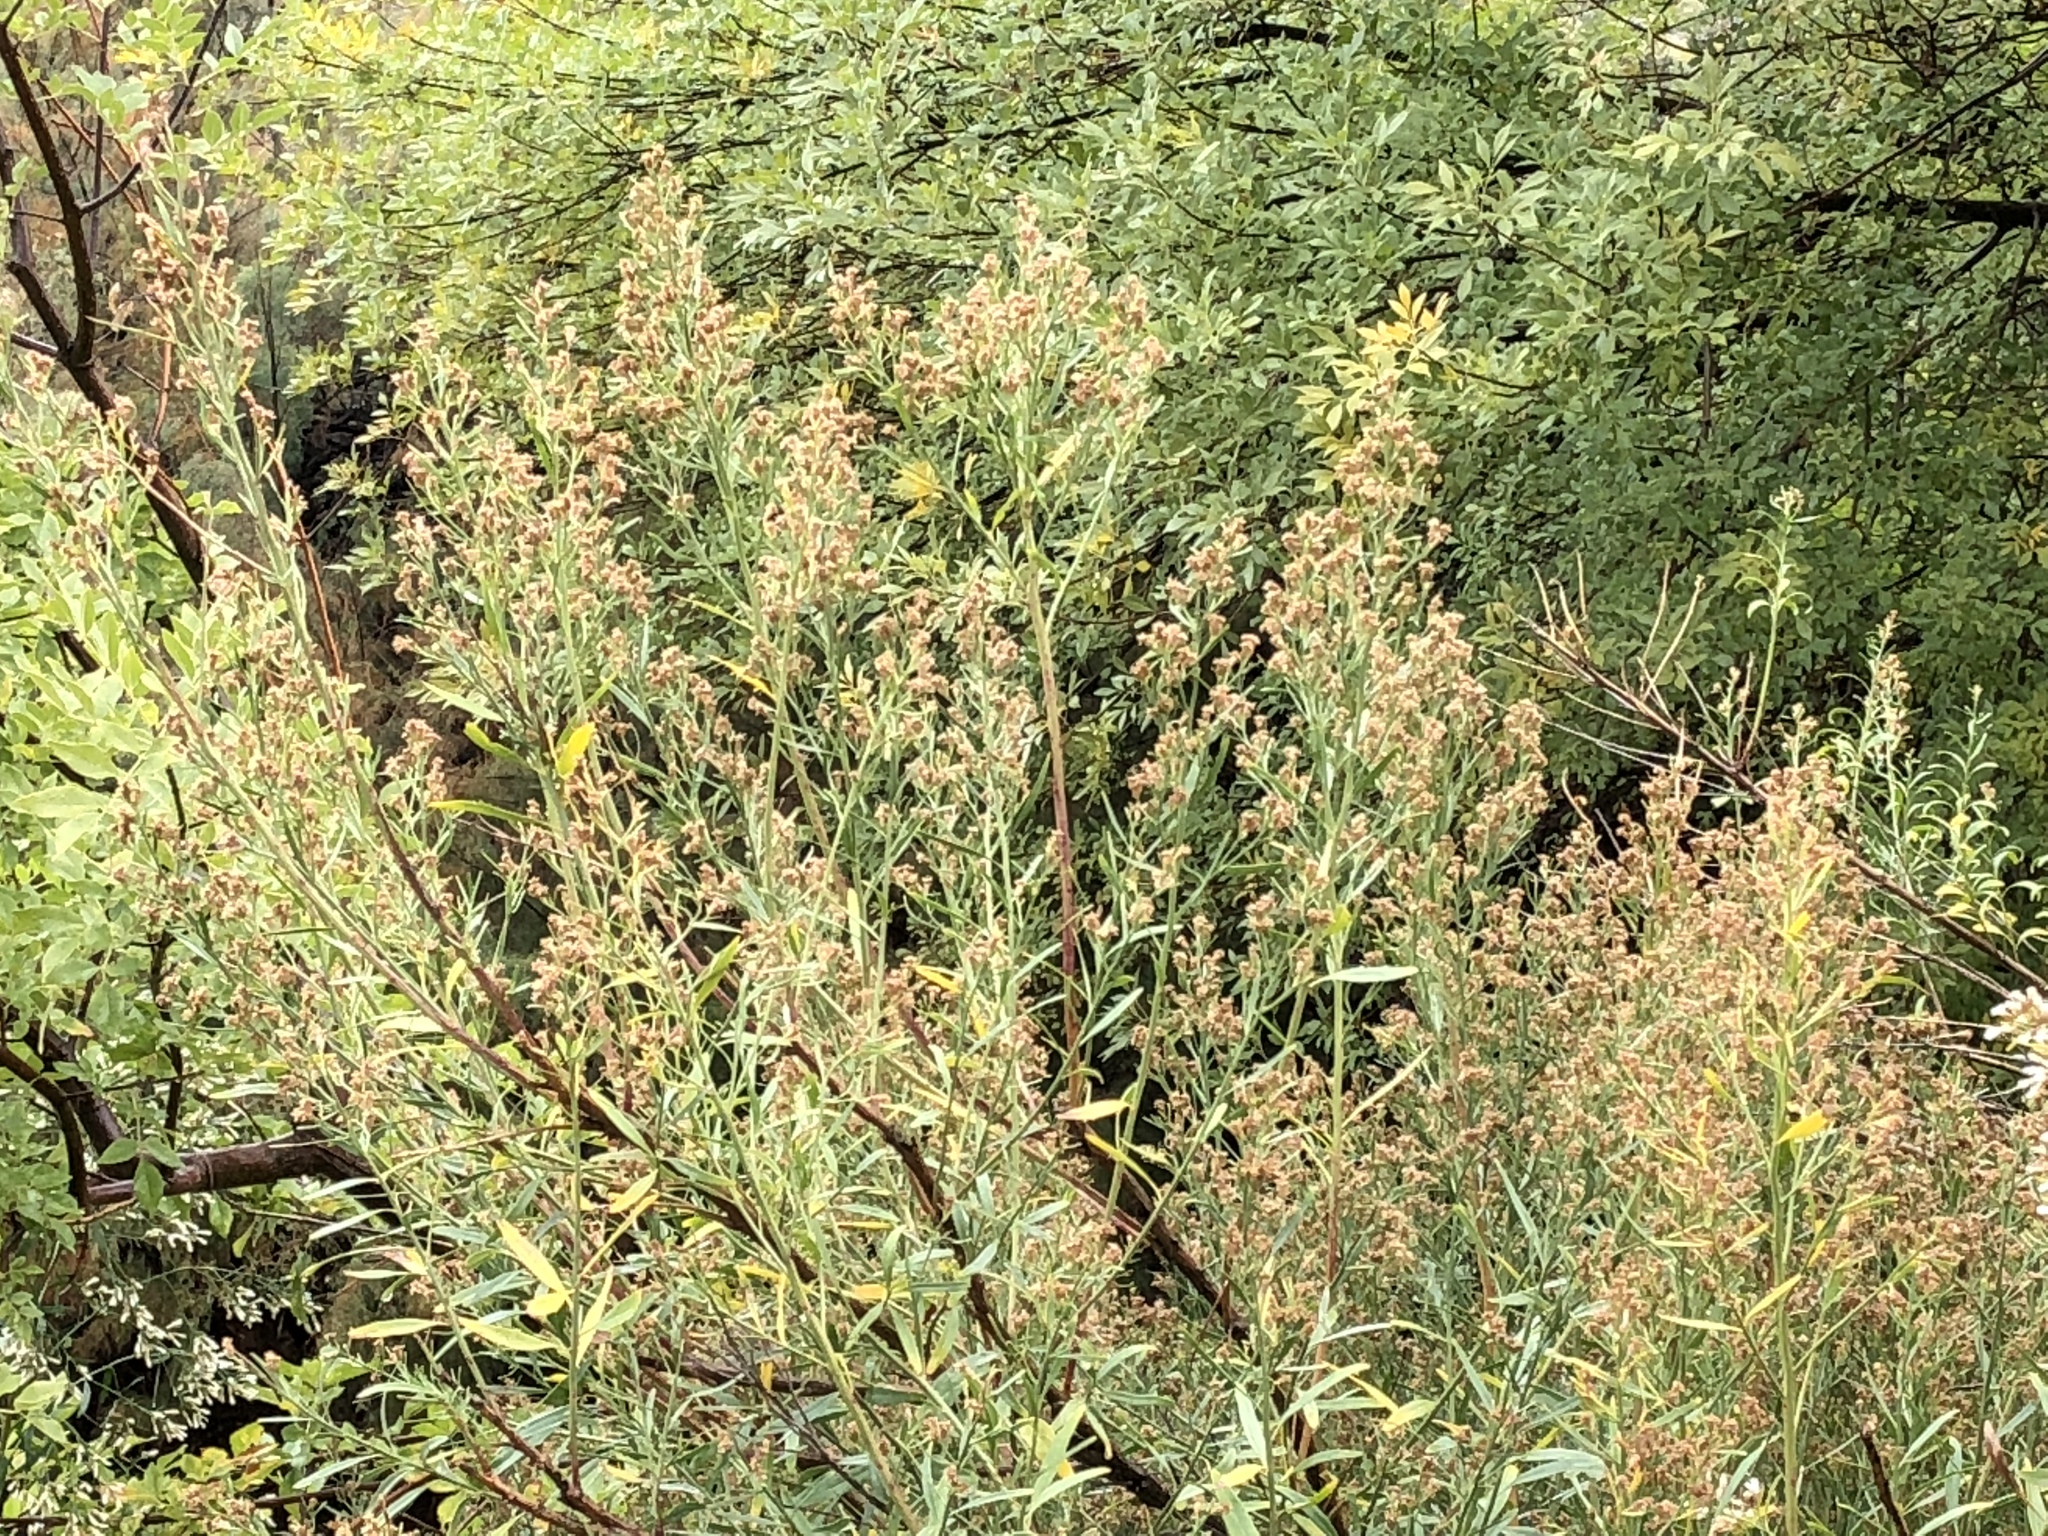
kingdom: Plantae
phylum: Tracheophyta
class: Magnoliopsida
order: Asterales
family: Asteraceae
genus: Baccharis
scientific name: Baccharis salicina
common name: Willow baccharis
